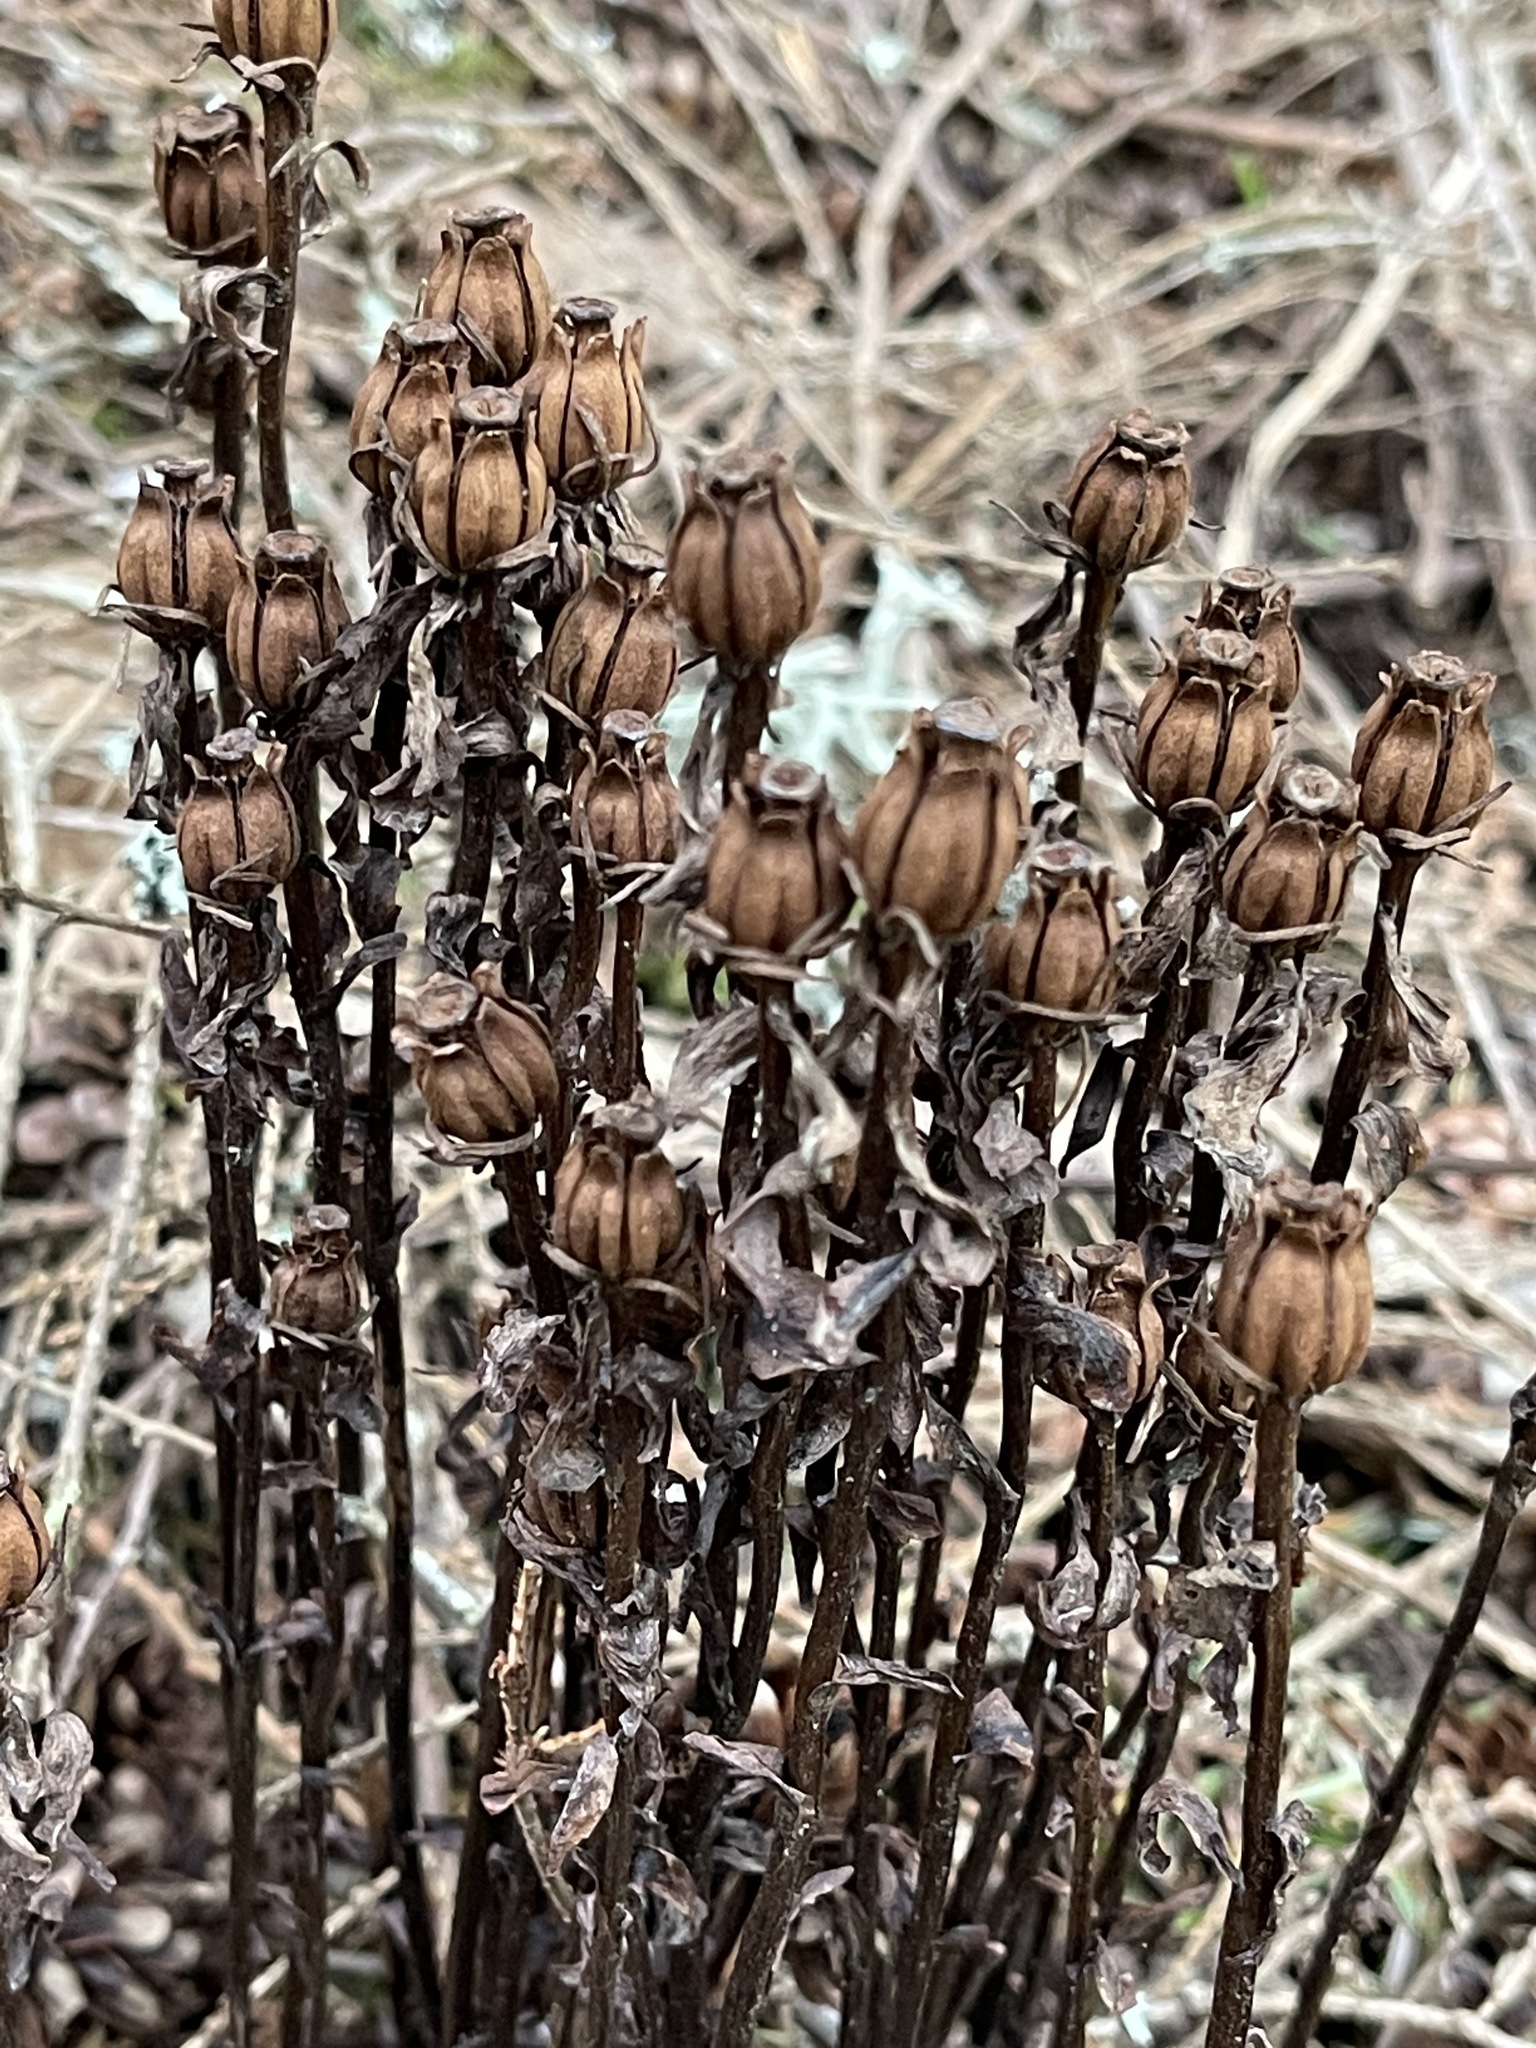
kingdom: Plantae
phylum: Tracheophyta
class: Magnoliopsida
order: Ericales
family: Ericaceae
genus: Monotropa
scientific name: Monotropa uniflora
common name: Convulsion root
